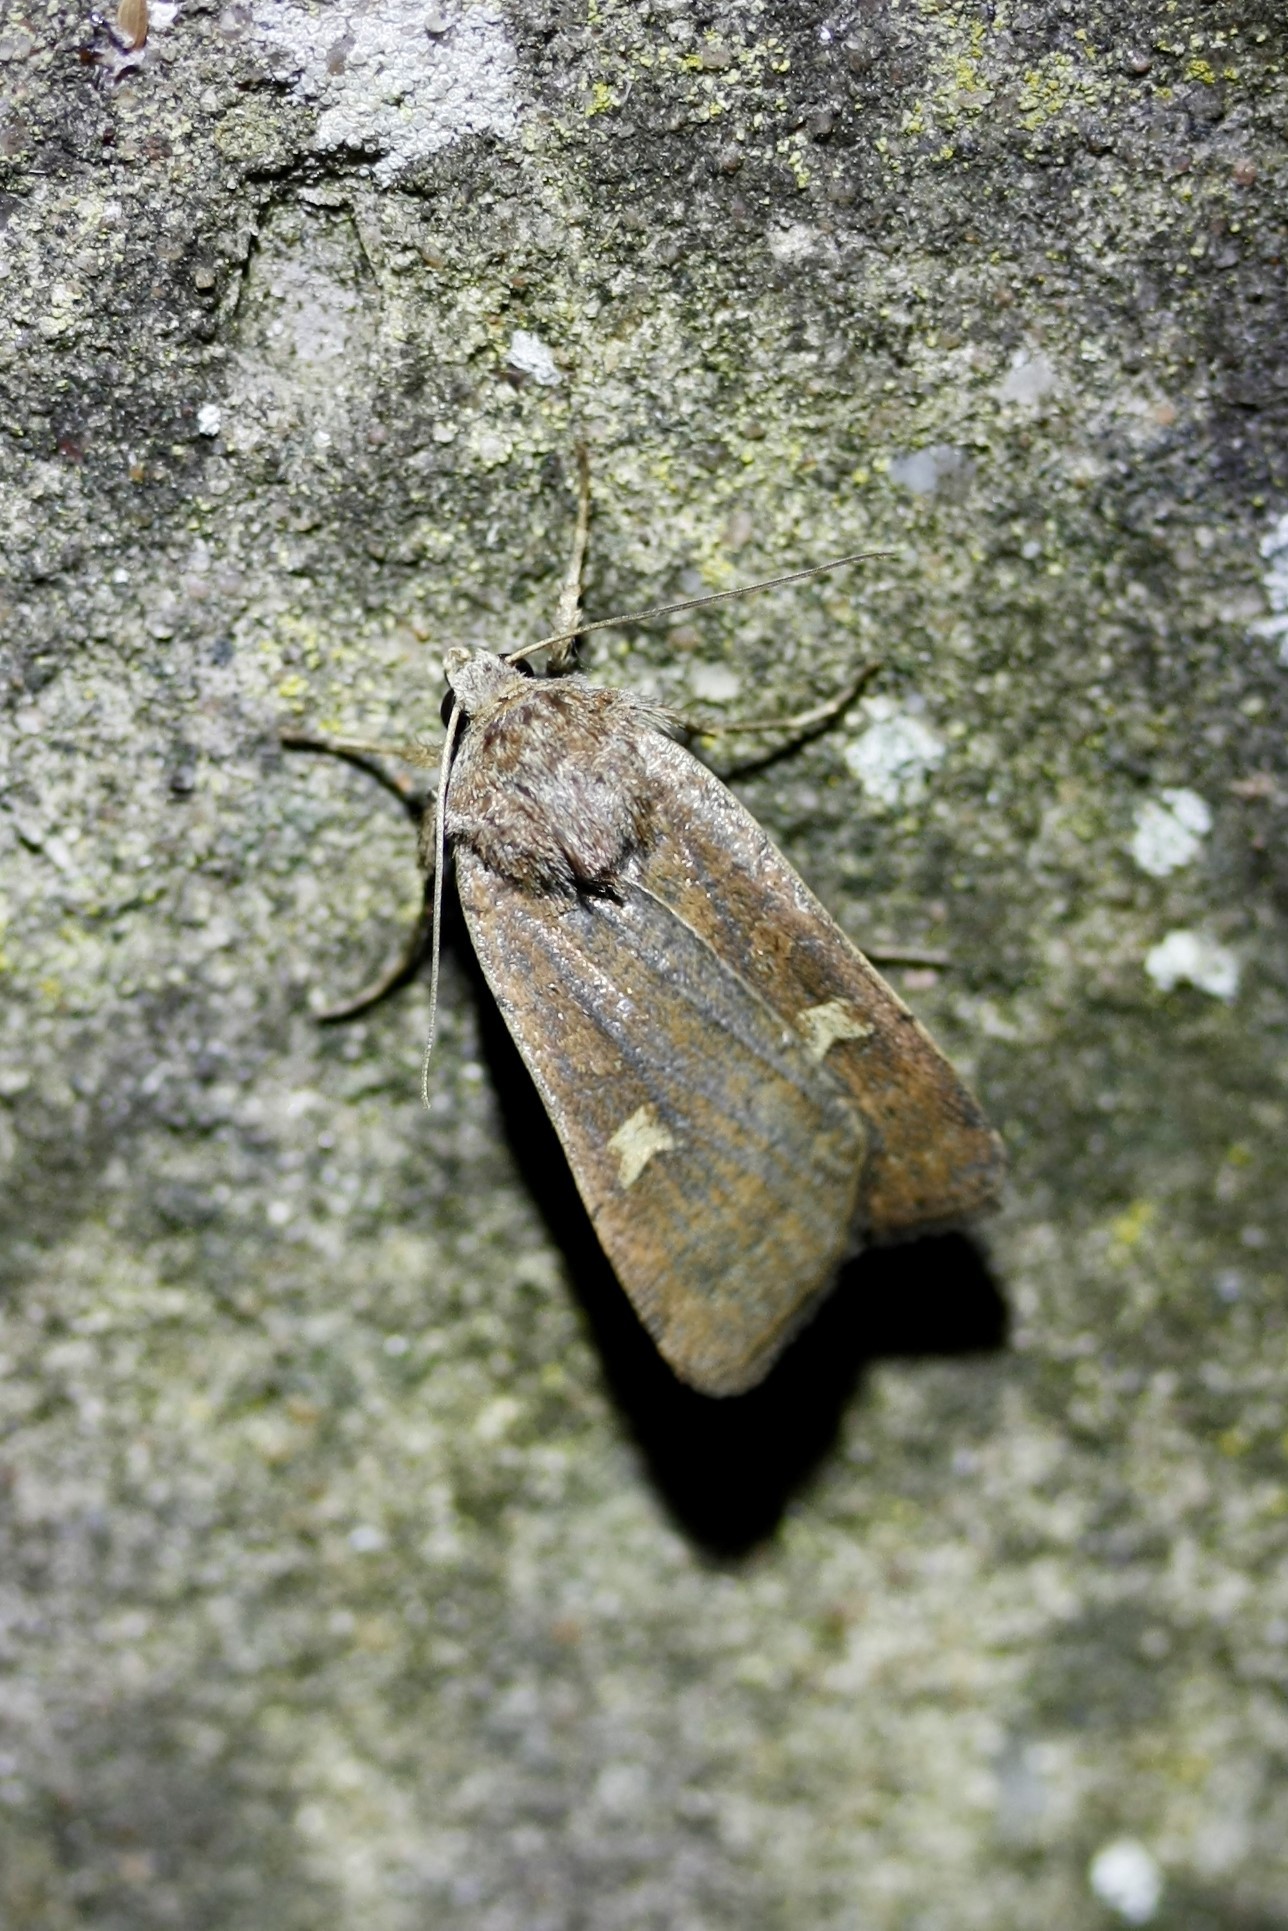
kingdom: Animalia
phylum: Arthropoda
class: Insecta
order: Lepidoptera
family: Noctuidae
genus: Xestia
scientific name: Xestia xanthographa
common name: Square-spot rustic
